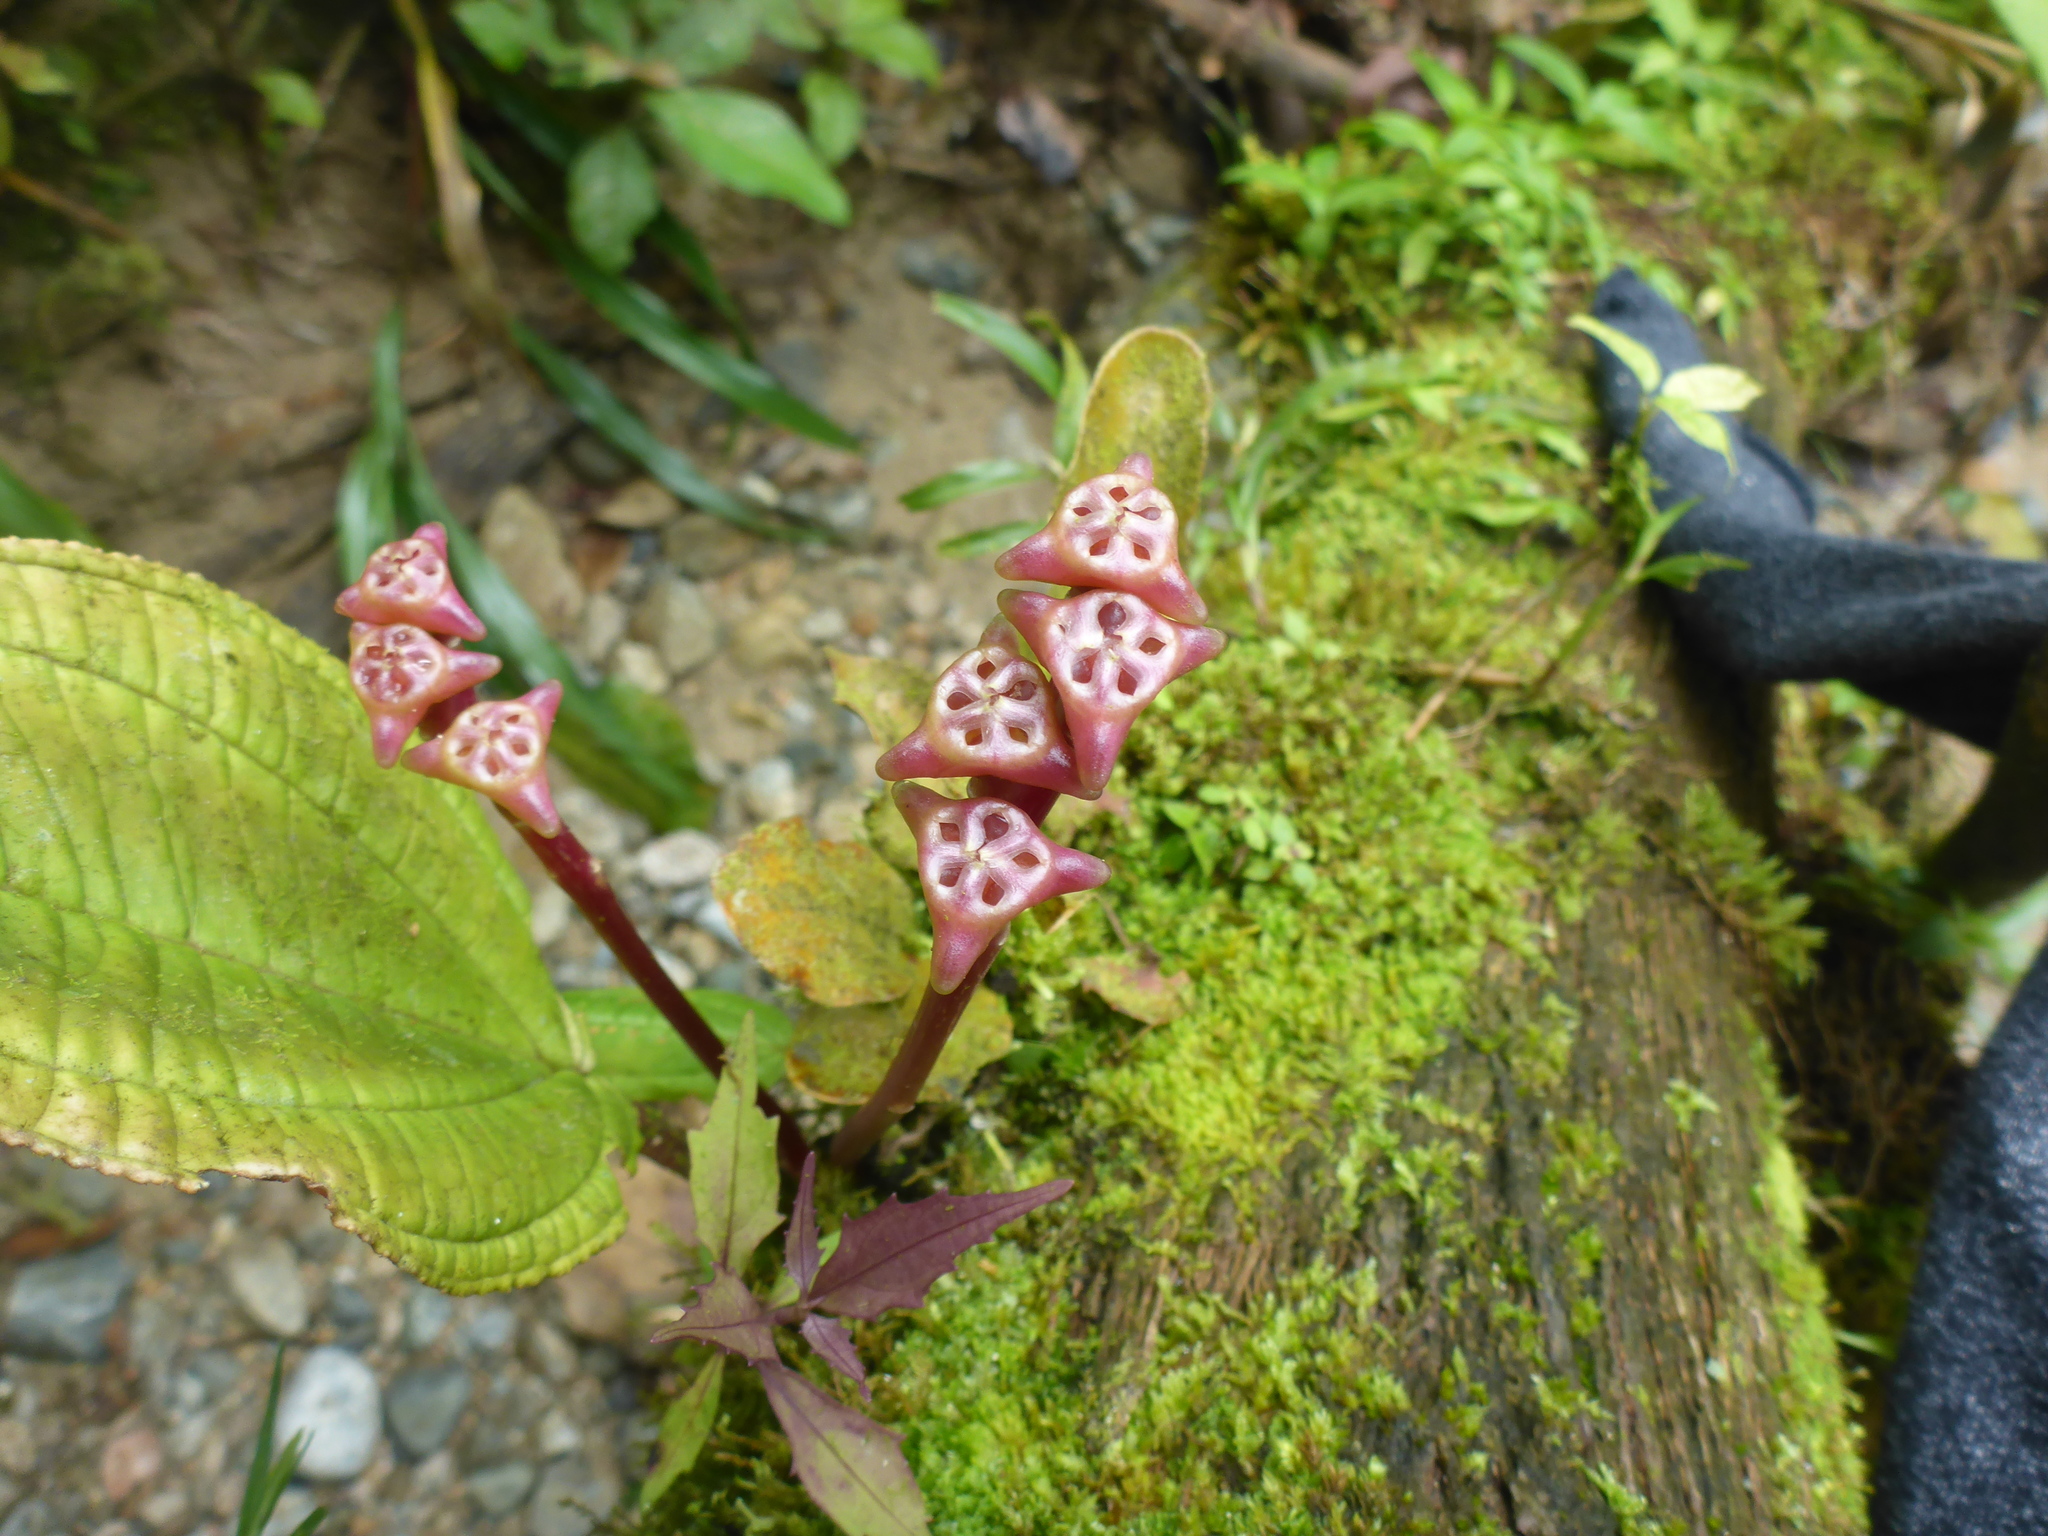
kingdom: Plantae
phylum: Tracheophyta
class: Magnoliopsida
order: Myrtales
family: Melastomataceae
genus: Monolena
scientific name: Monolena primuliflora
